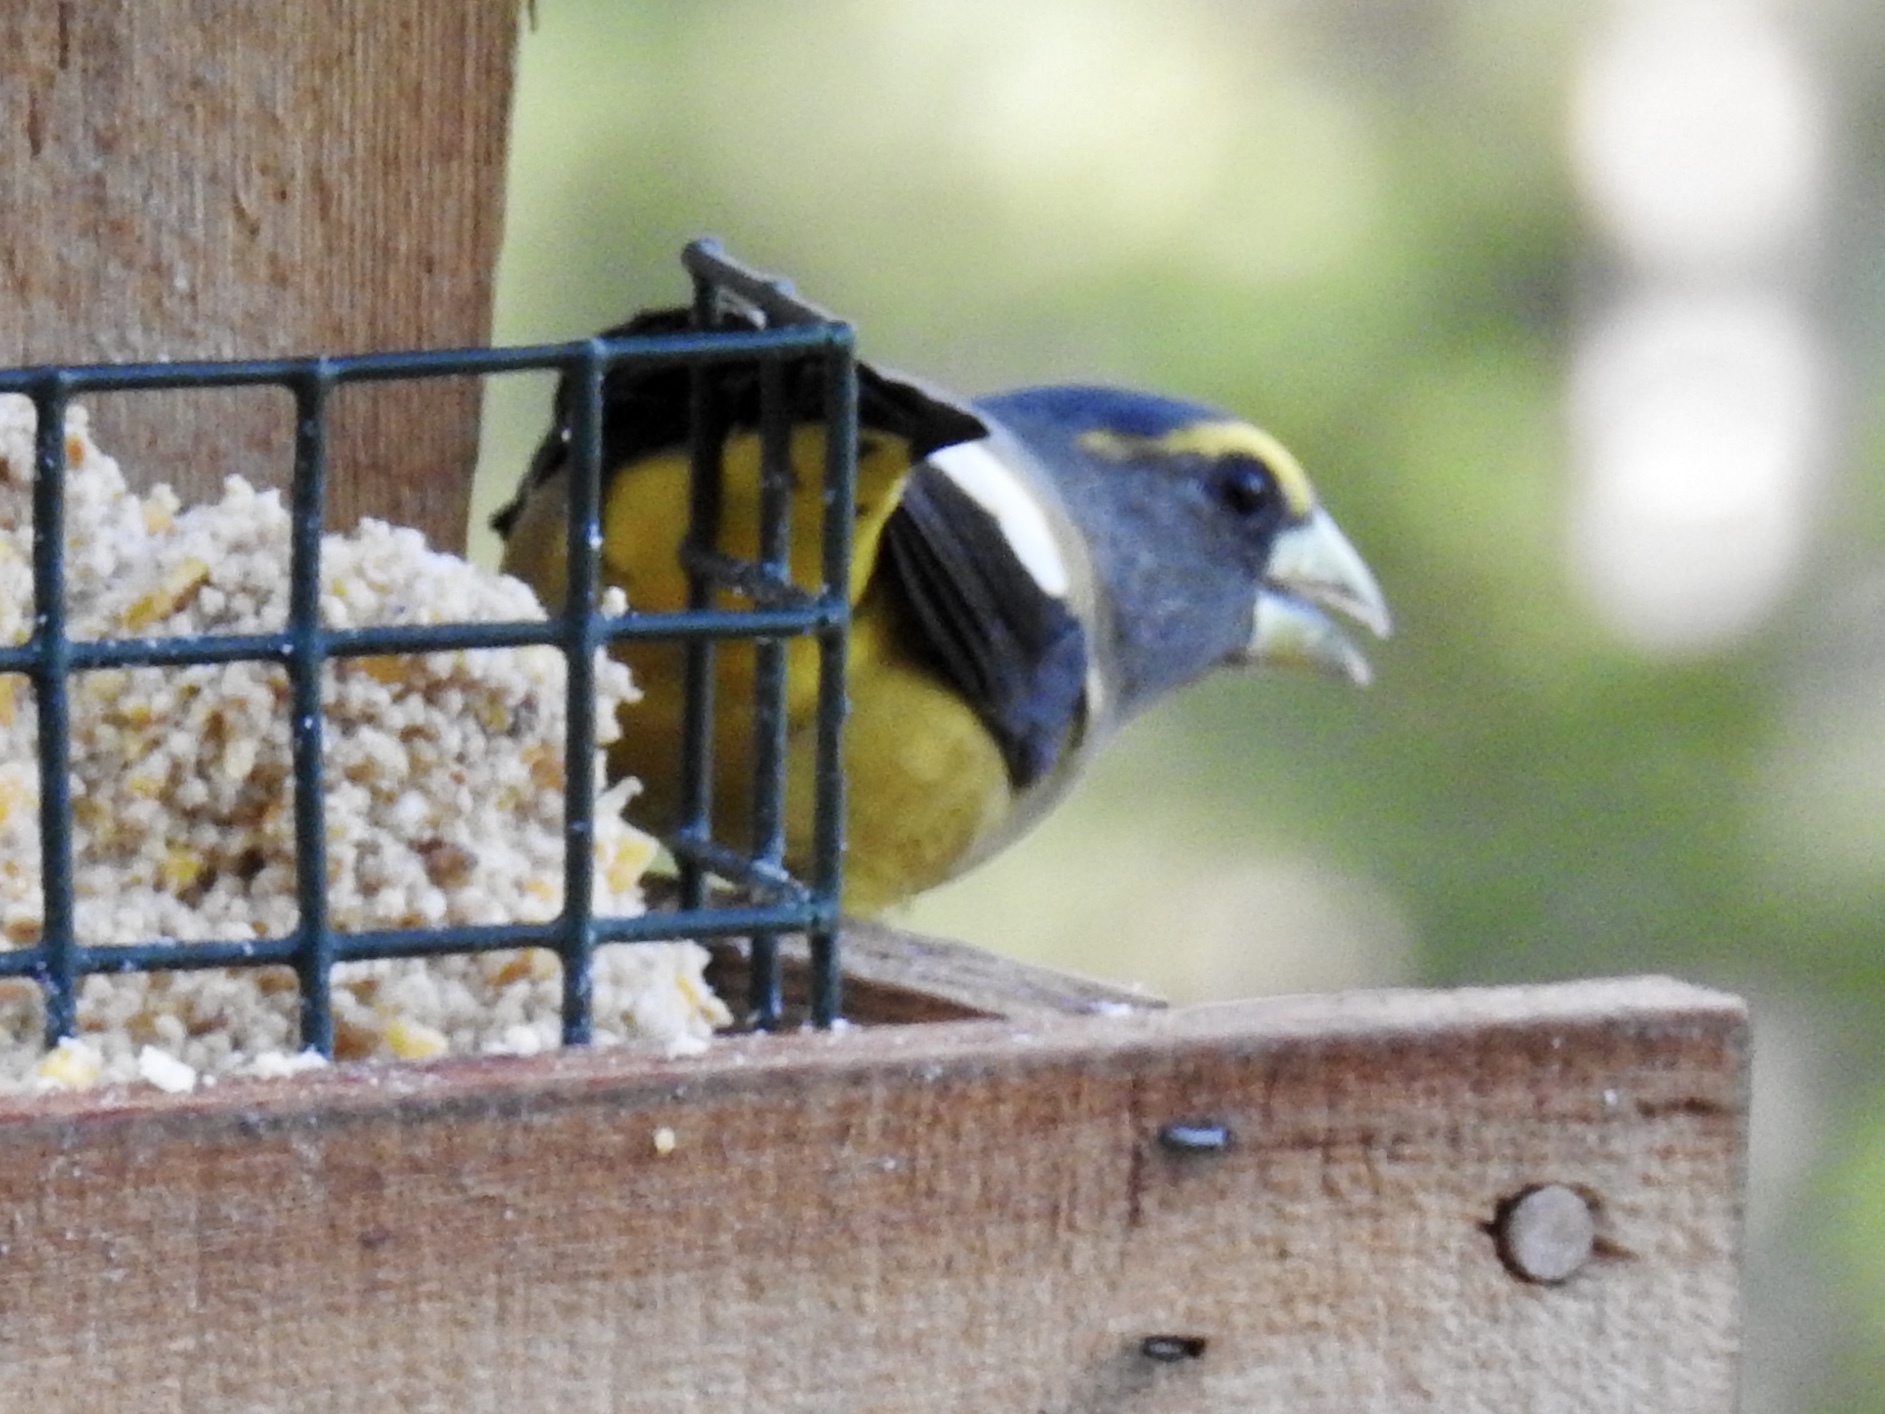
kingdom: Animalia
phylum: Chordata
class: Aves
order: Passeriformes
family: Fringillidae
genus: Hesperiphona
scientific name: Hesperiphona vespertina
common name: Evening grosbeak
